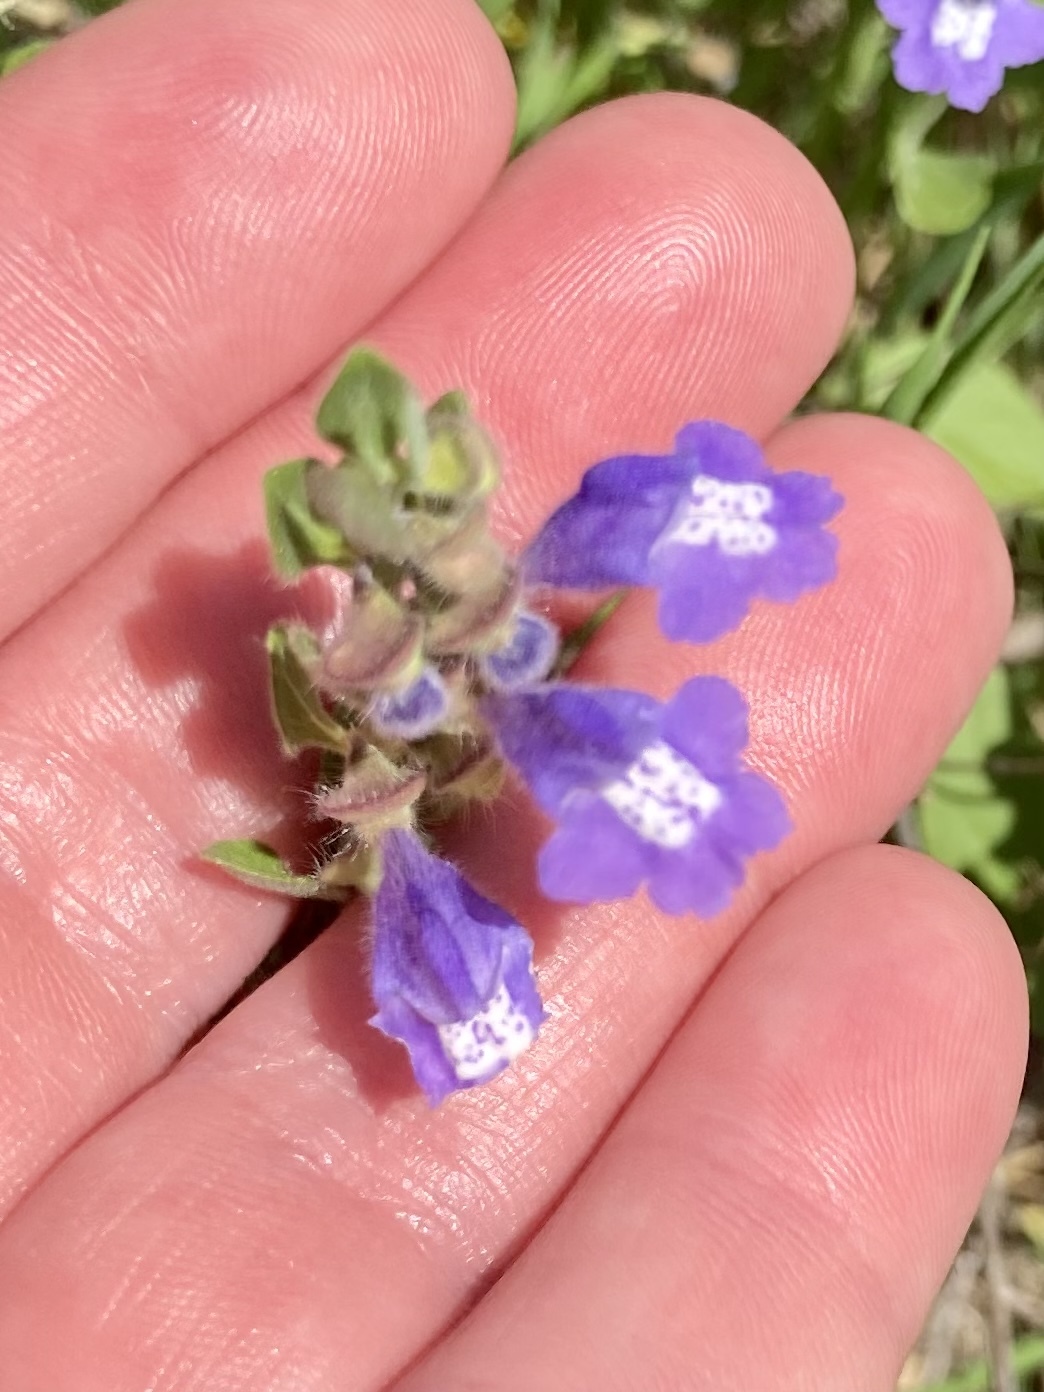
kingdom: Plantae
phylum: Tracheophyta
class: Magnoliopsida
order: Lamiales
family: Lamiaceae
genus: Scutellaria
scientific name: Scutellaria drummondii
